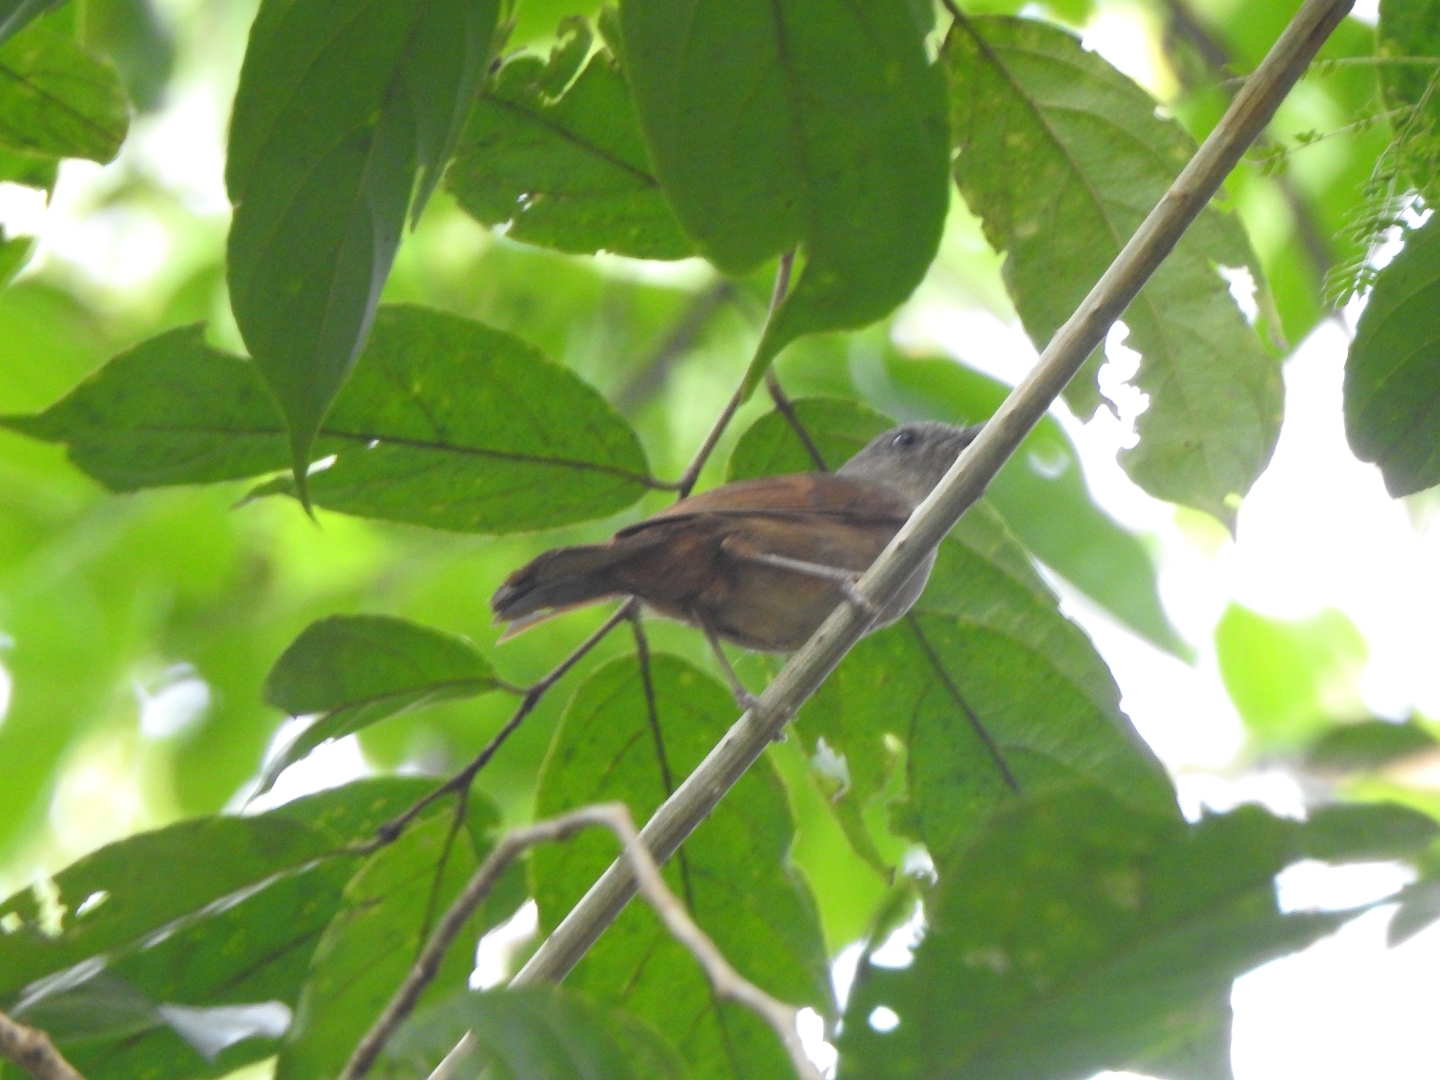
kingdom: Animalia
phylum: Chordata
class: Aves
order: Passeriformes
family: Pellorneidae
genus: Alcippe
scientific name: Alcippe poioicephala
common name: Brown-cheeked fulvetta
